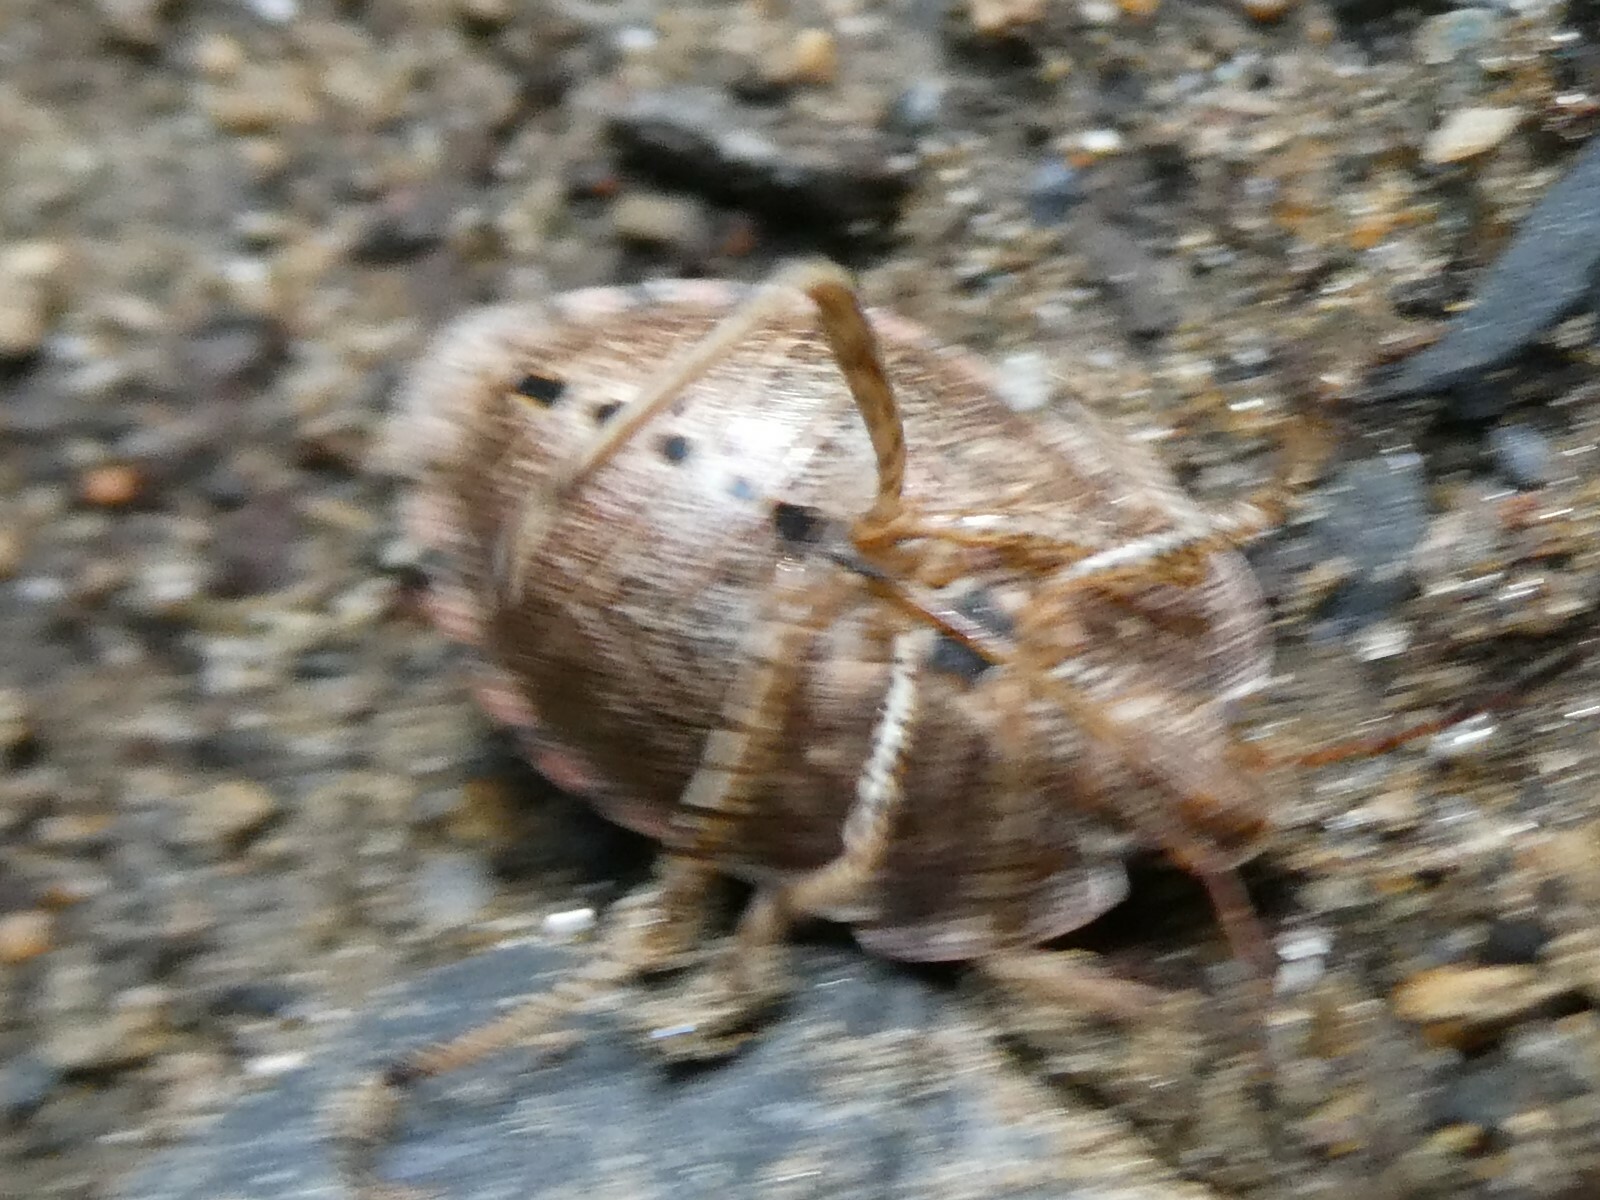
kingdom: Animalia
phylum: Arthropoda
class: Insecta
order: Hemiptera
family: Pentatomidae
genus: Menecles
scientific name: Menecles insertus
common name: Elf shoe stink bug
